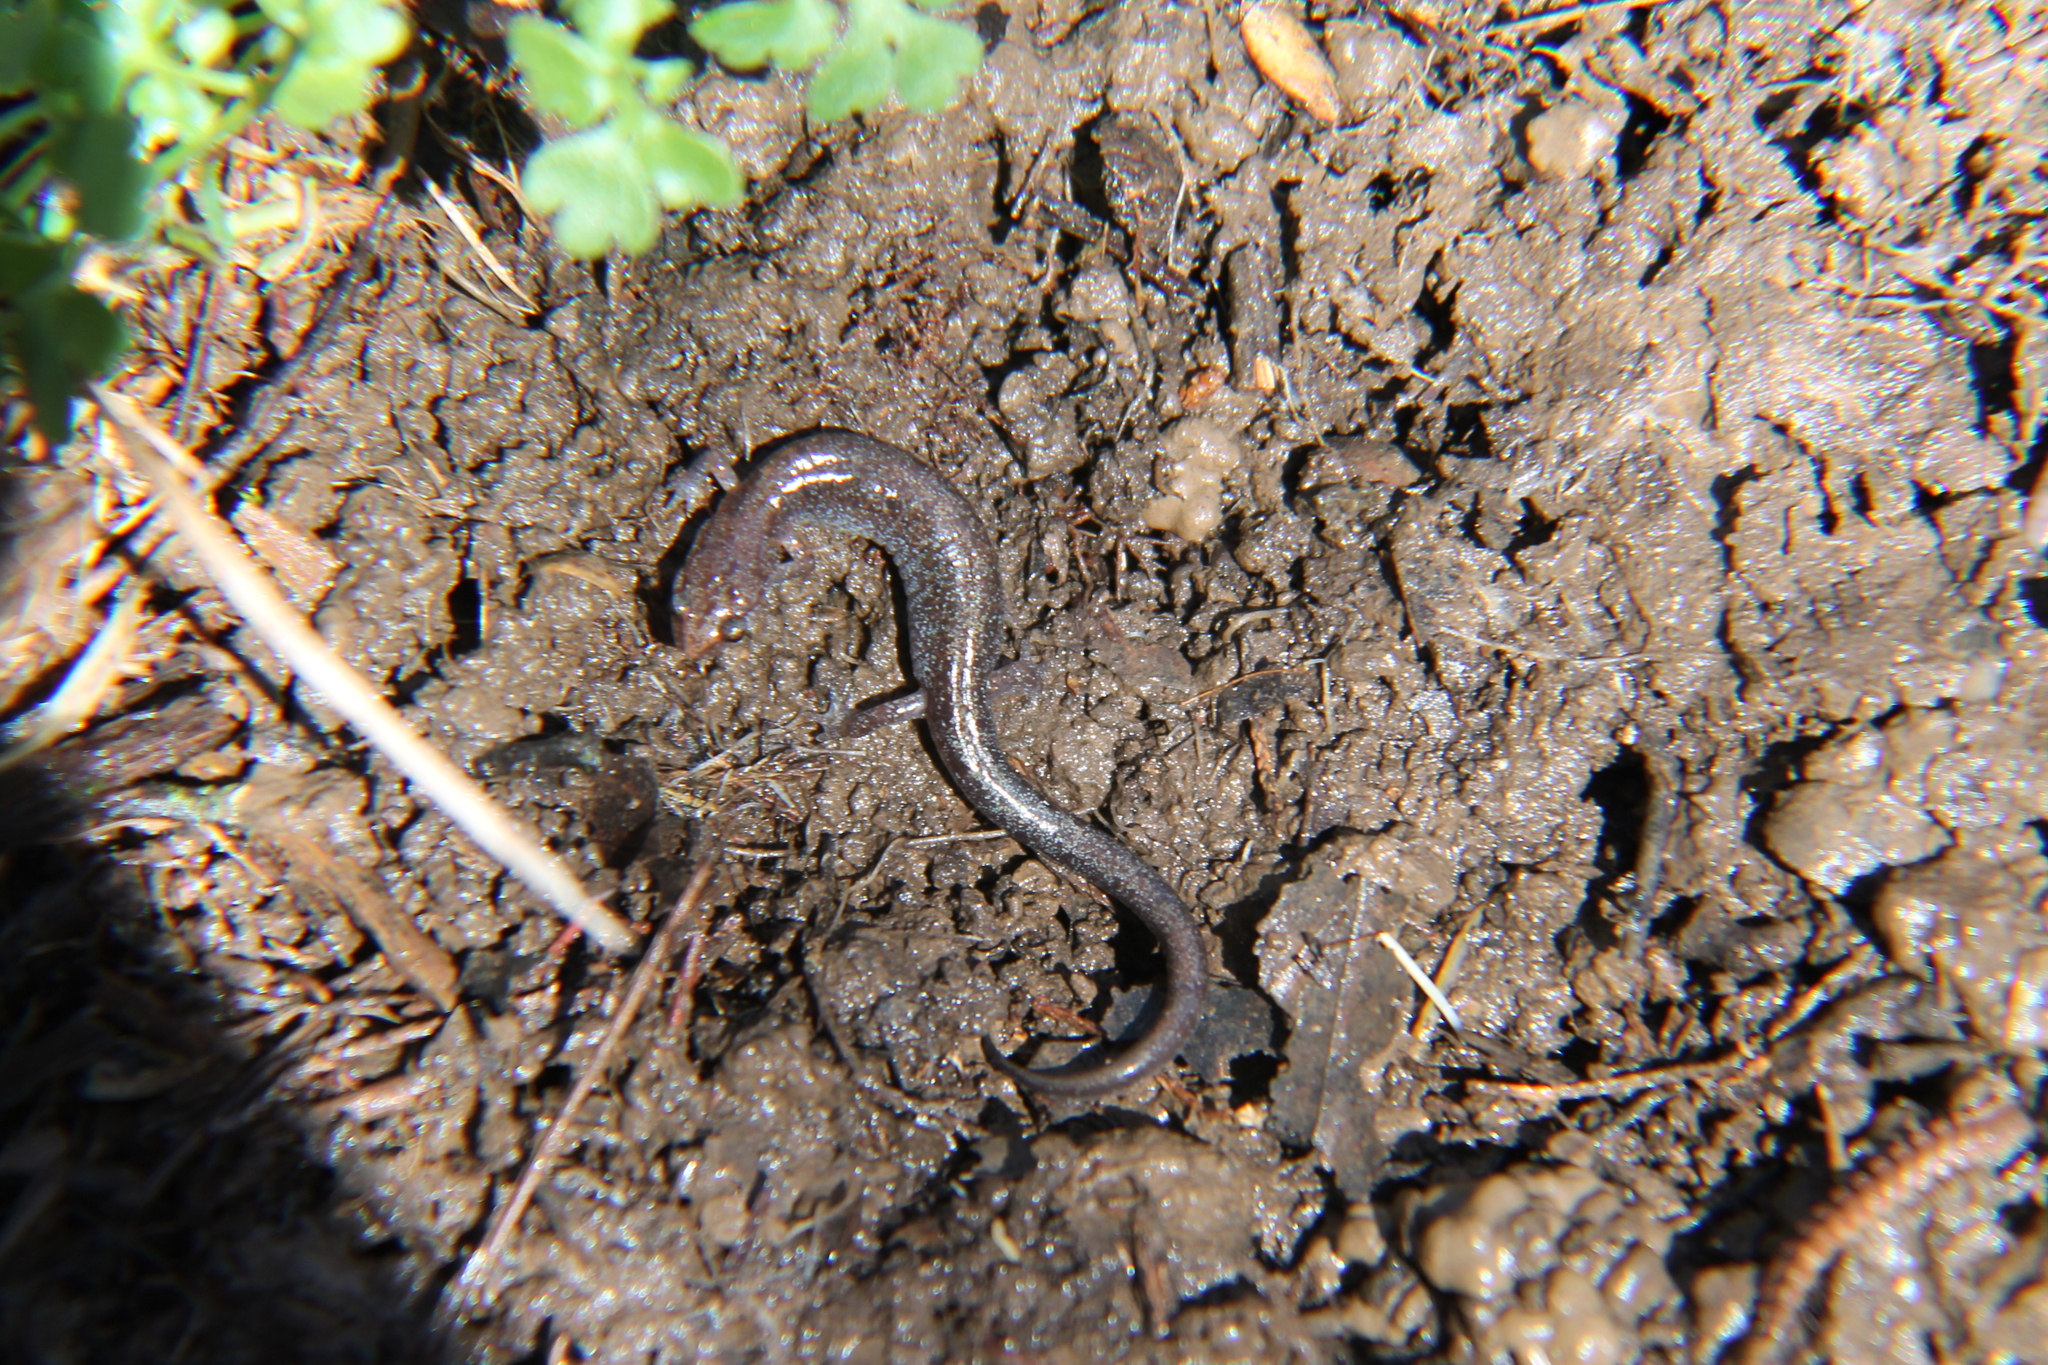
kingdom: Animalia
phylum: Chordata
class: Amphibia
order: Caudata
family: Plethodontidae
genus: Plethodon
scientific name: Plethodon dorsalis
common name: Northern zigzag salamander
